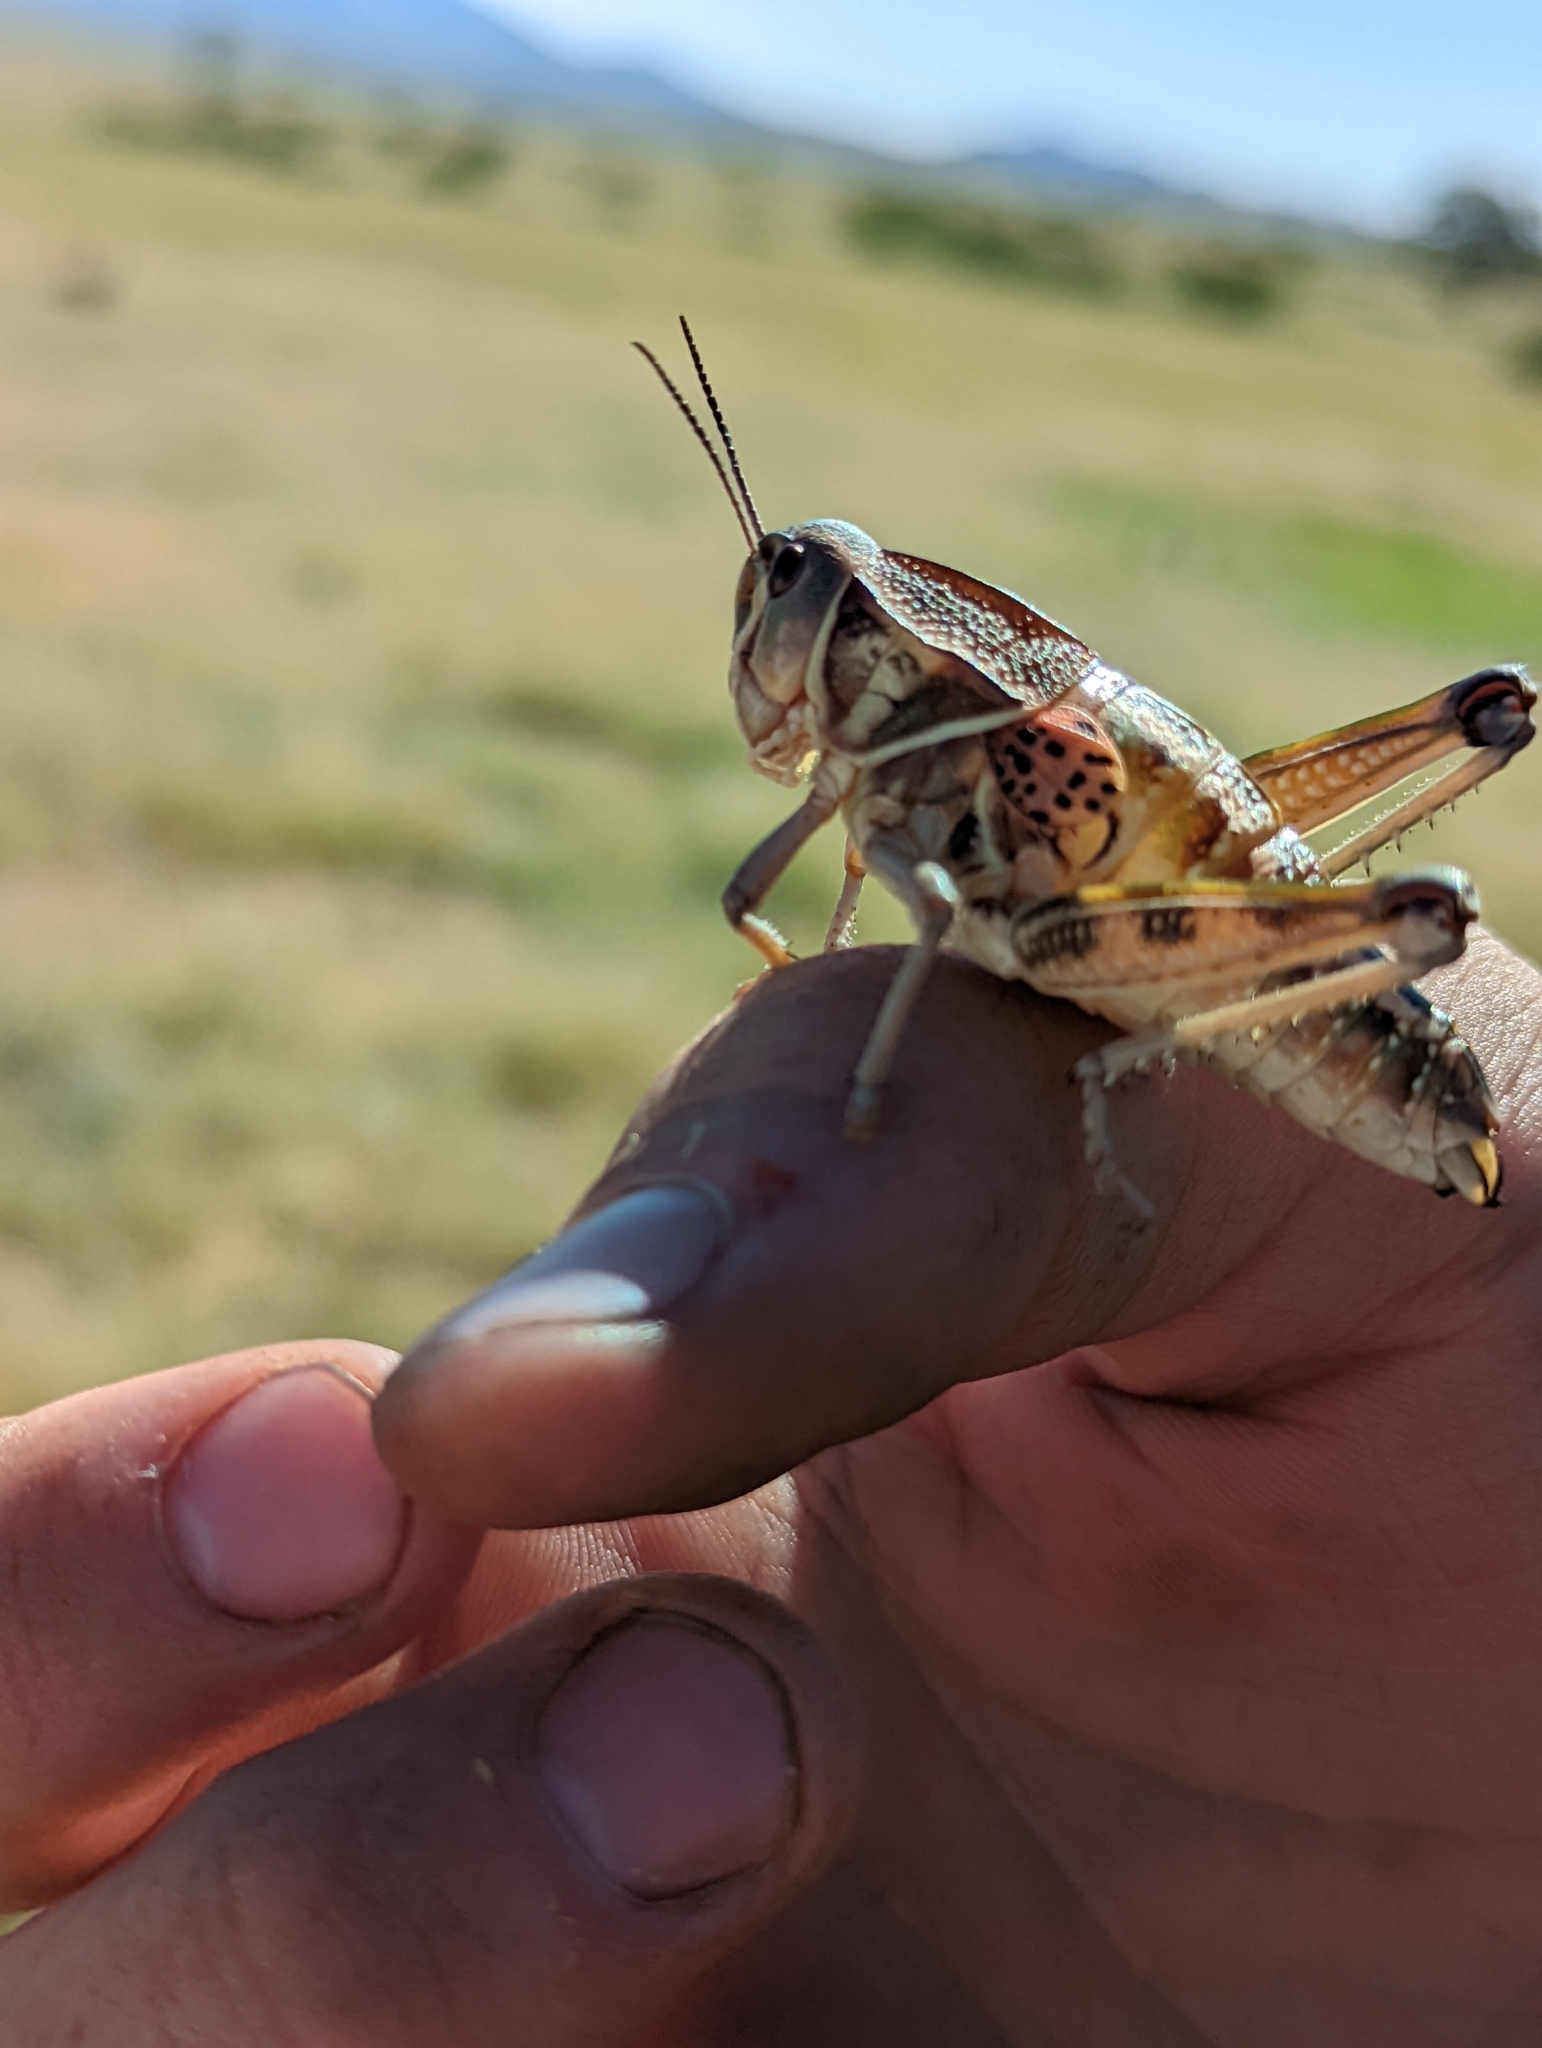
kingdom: Animalia
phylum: Arthropoda
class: Insecta
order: Orthoptera
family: Romaleidae
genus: Brachystola
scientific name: Brachystola magna
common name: Plains lubber grasshopper
